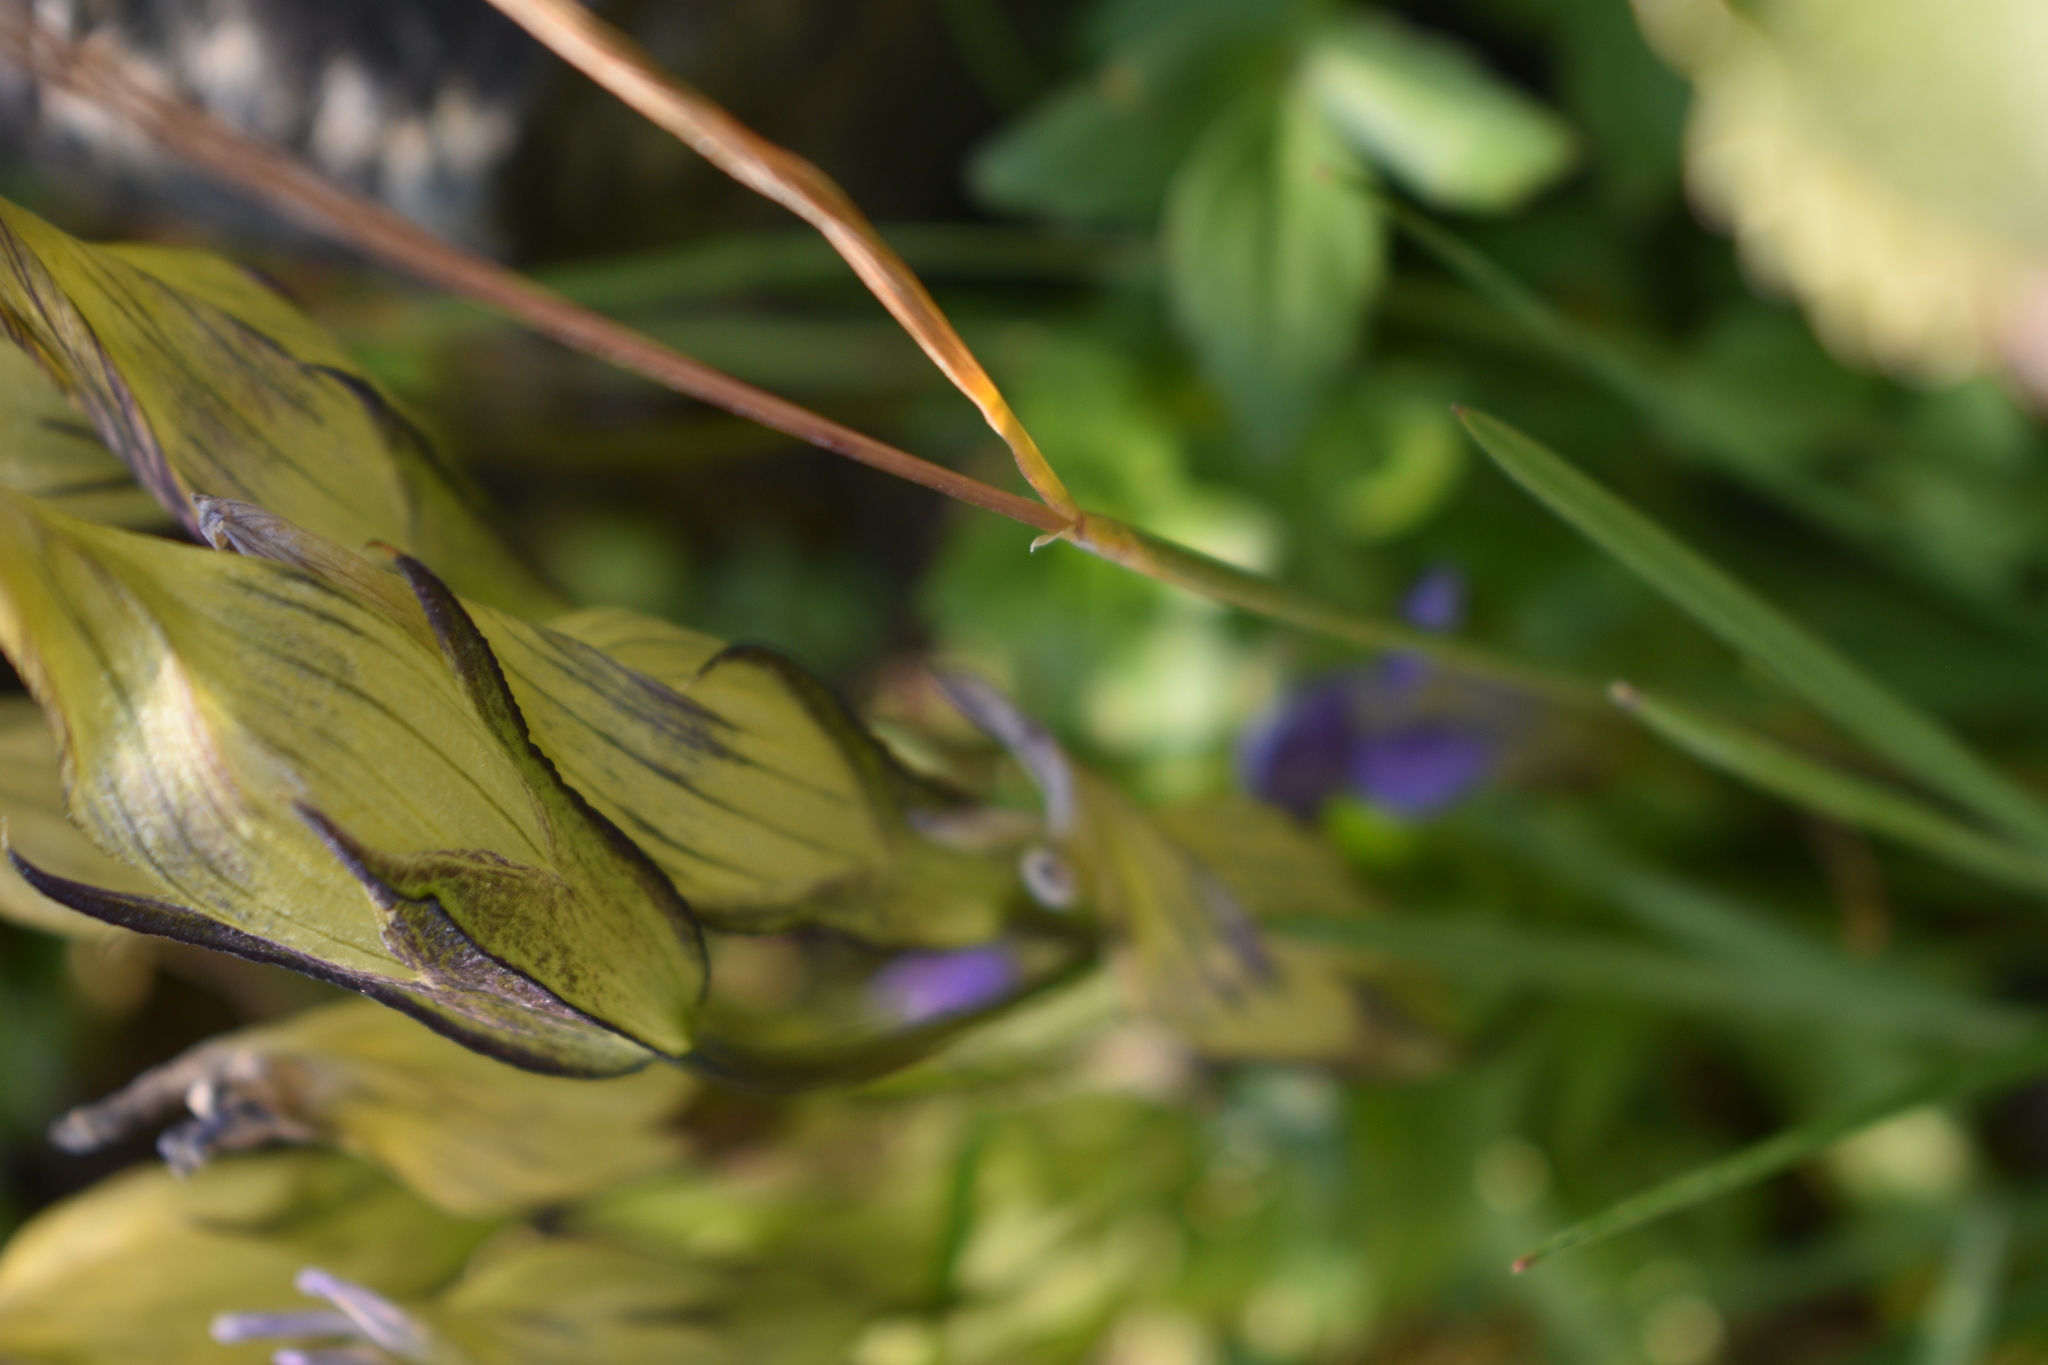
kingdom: Plantae
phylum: Tracheophyta
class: Magnoliopsida
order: Gentianales
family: Gentianaceae
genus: Gentiana
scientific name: Gentiana algida
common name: Arctic gentian
